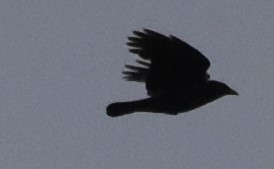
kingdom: Animalia
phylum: Chordata
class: Aves
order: Passeriformes
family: Corvidae
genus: Corvus
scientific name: Corvus corone
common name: Carrion crow
